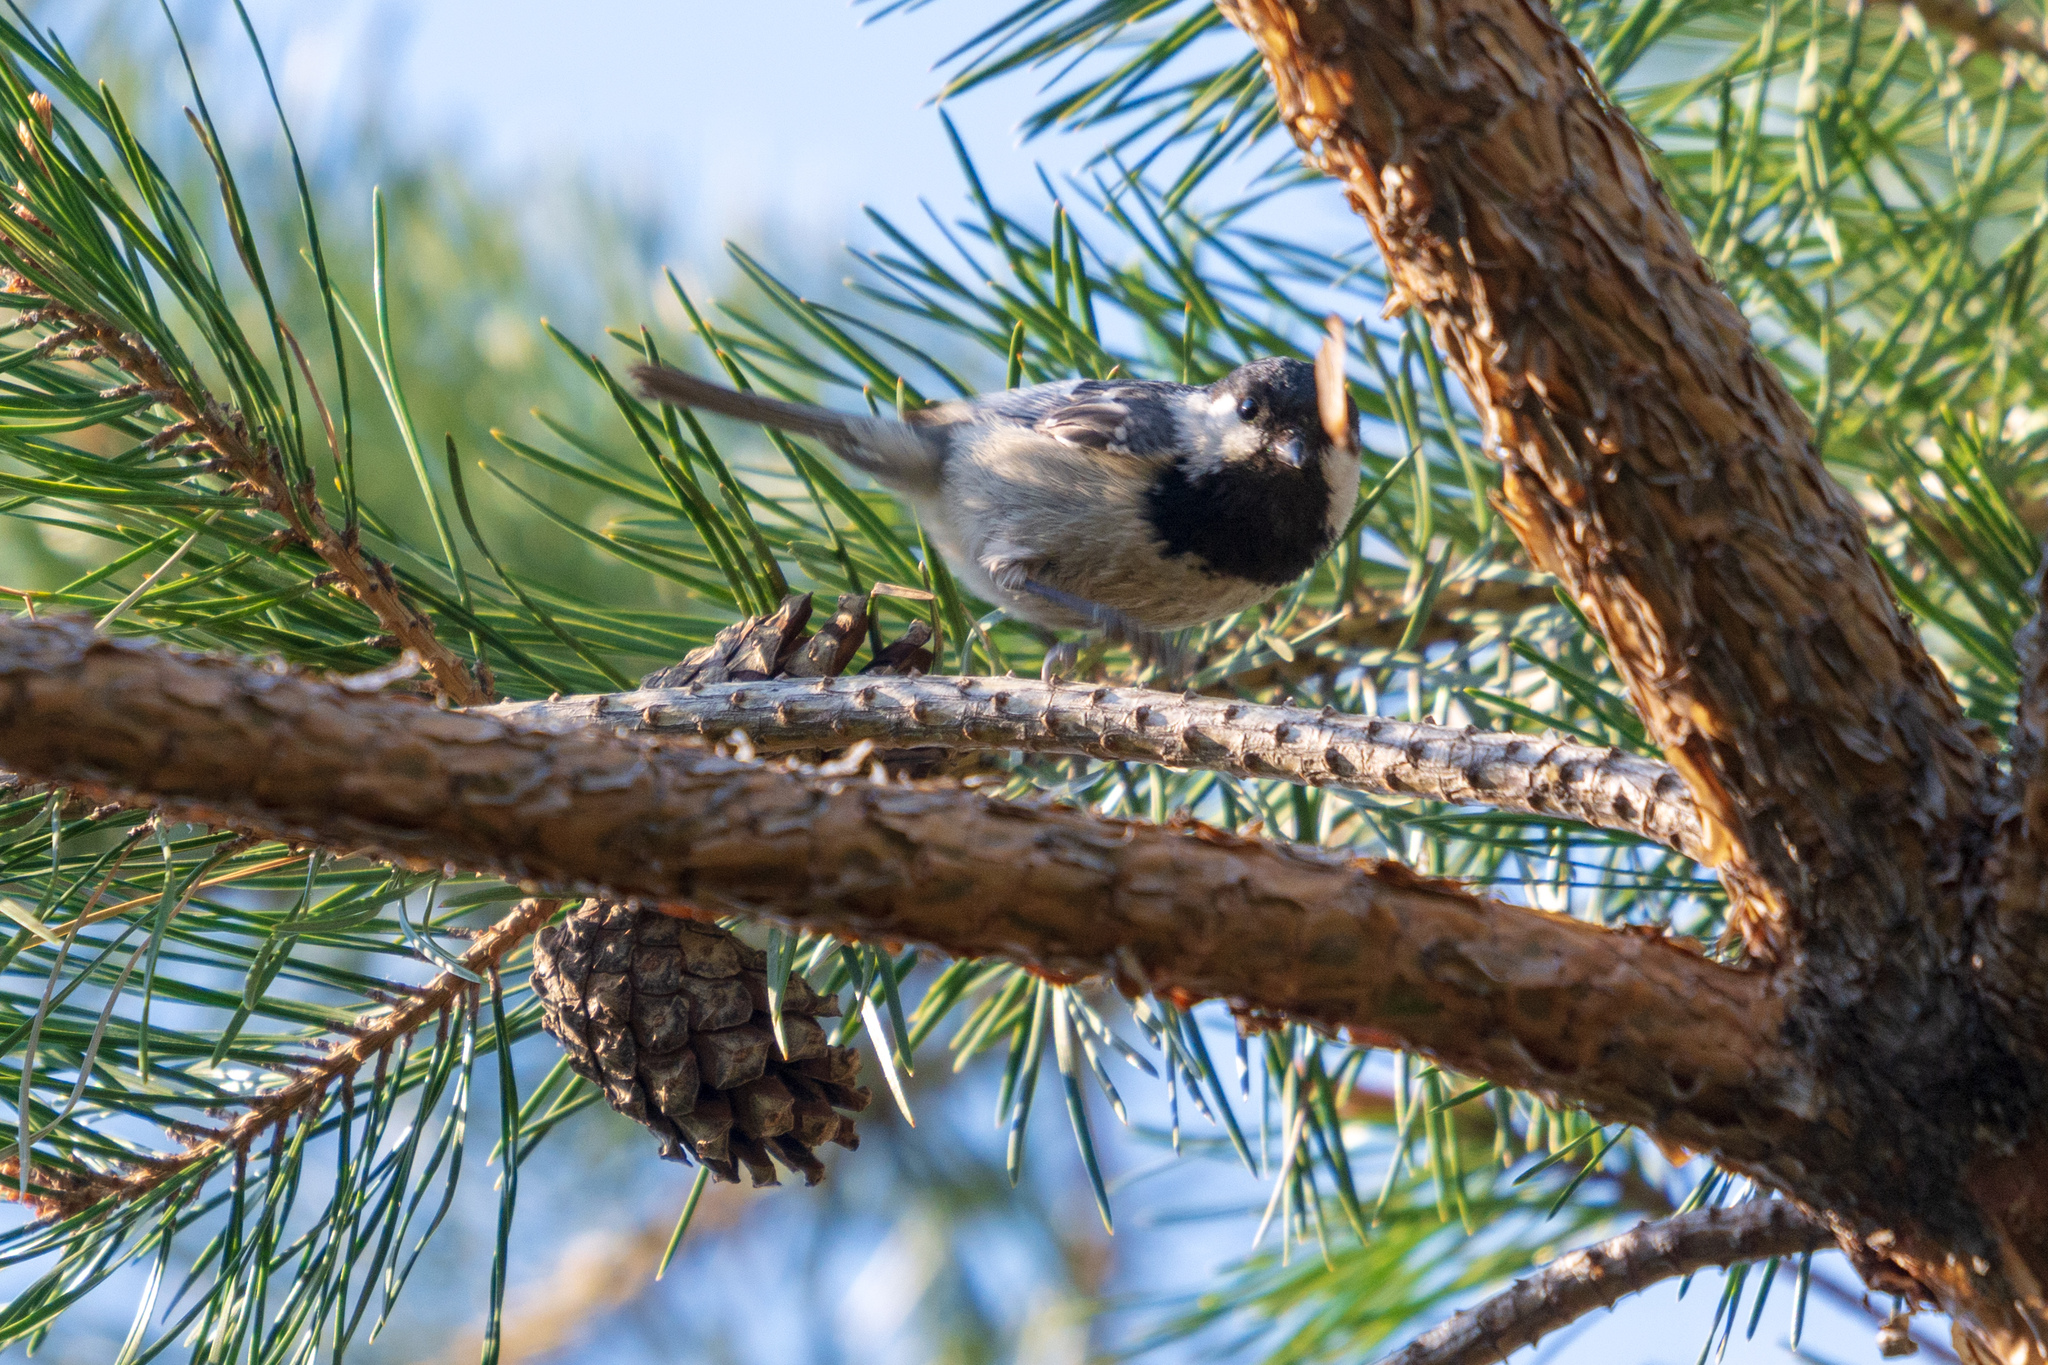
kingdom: Animalia
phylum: Chordata
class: Aves
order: Passeriformes
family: Paridae
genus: Periparus
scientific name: Periparus ater
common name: Coal tit
